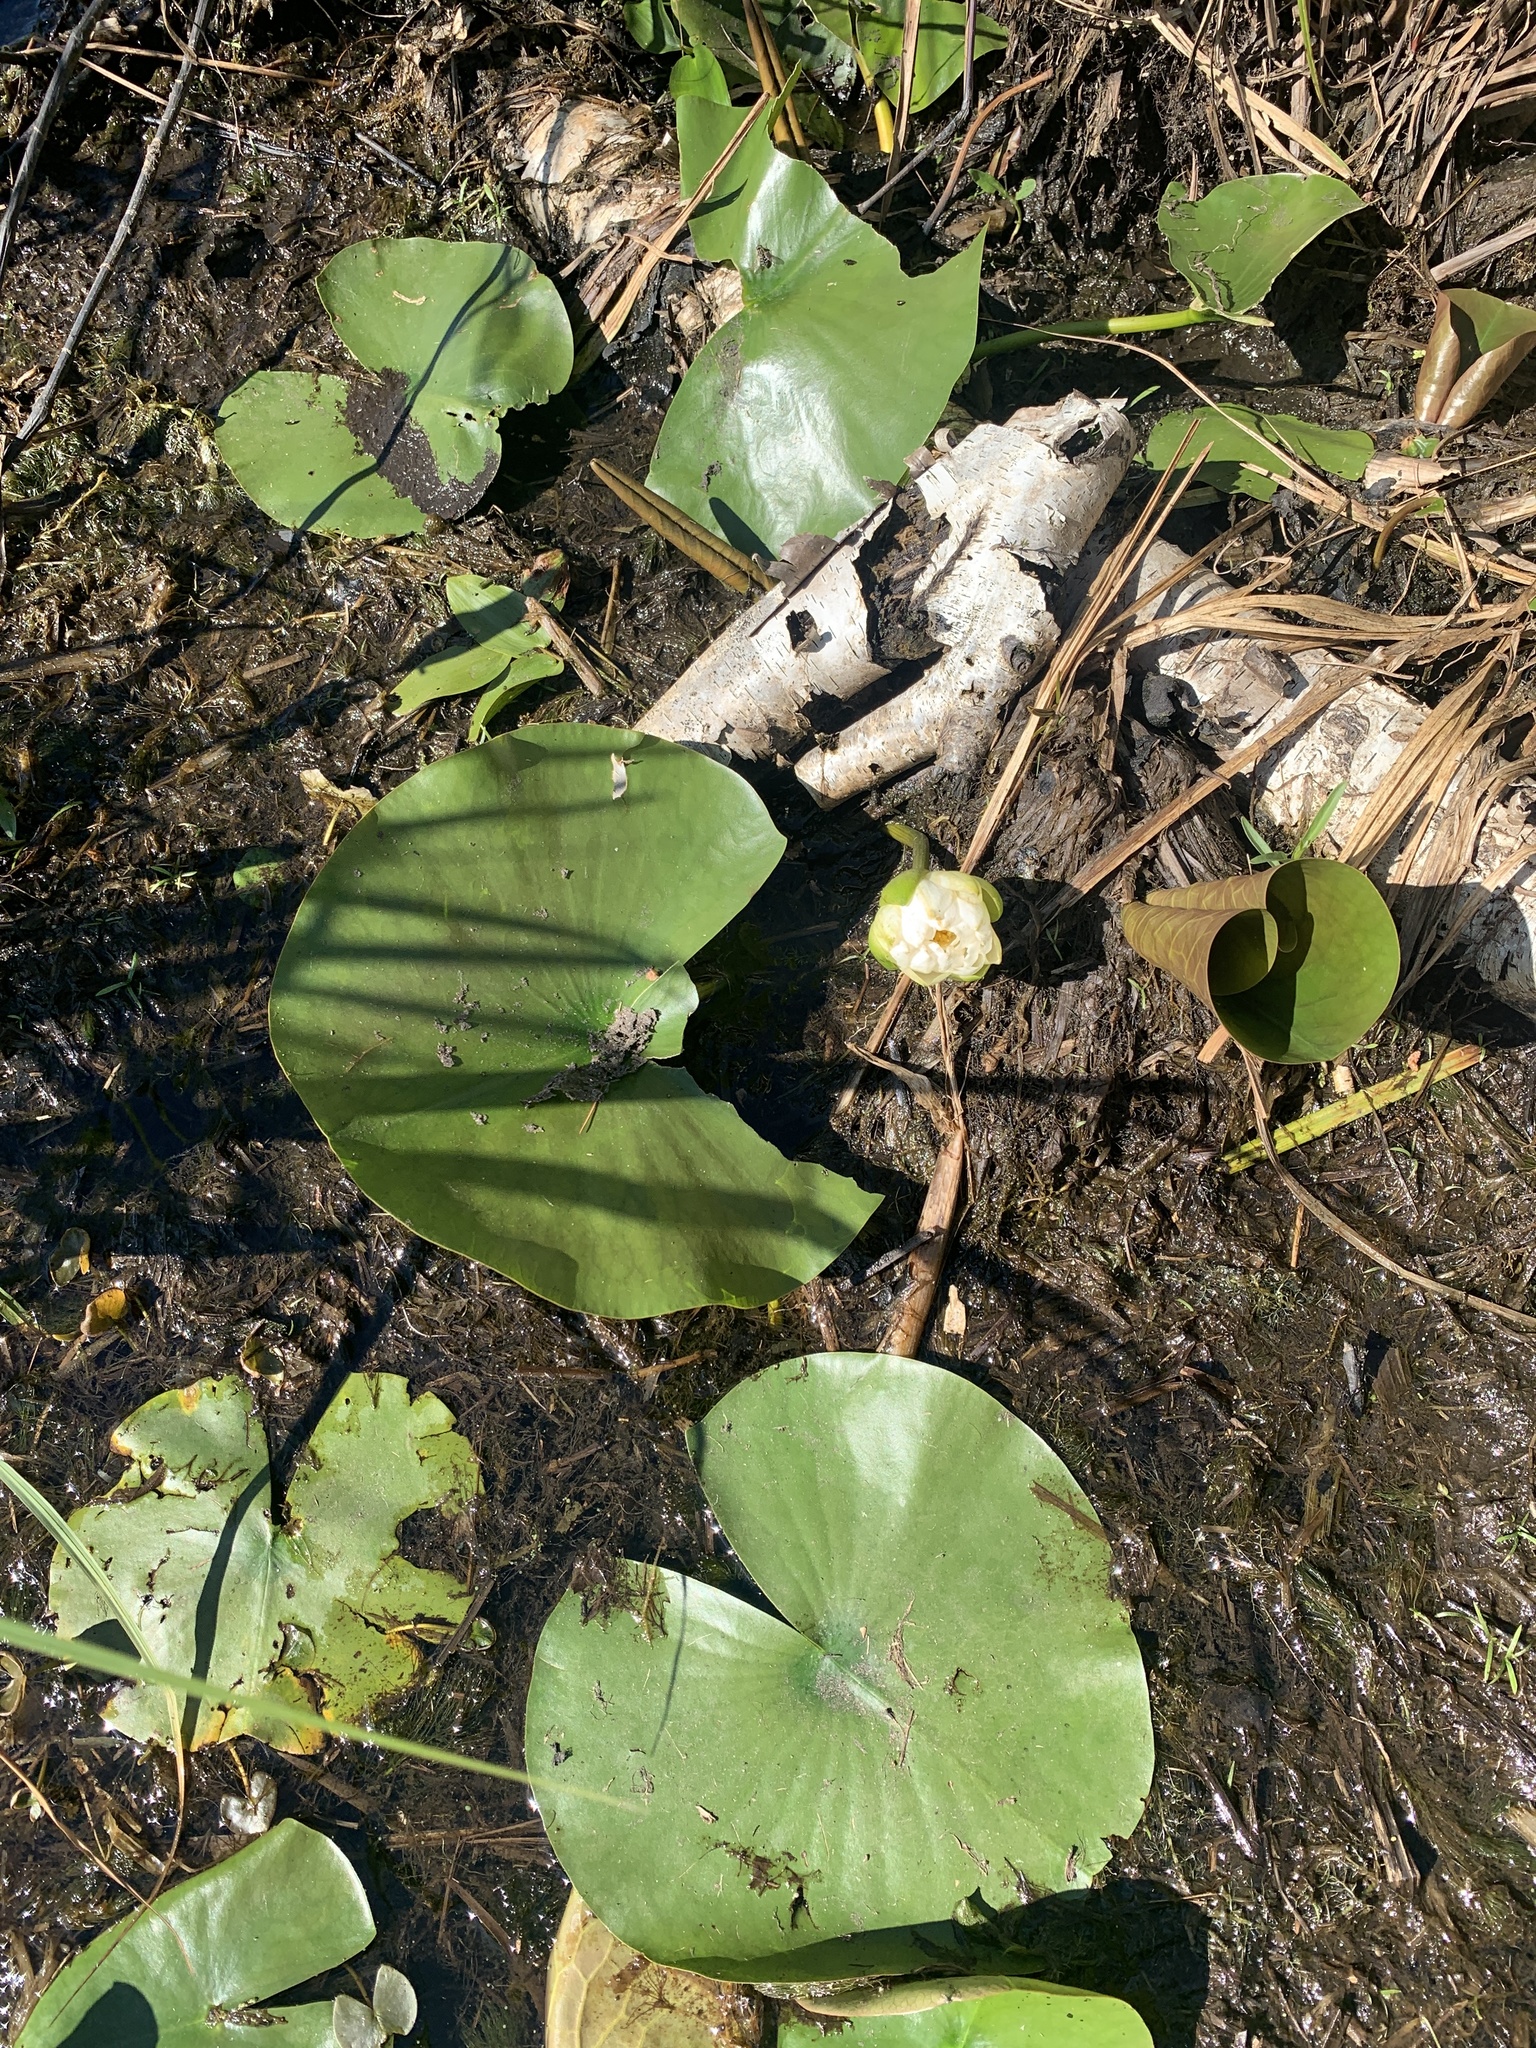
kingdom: Plantae
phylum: Tracheophyta
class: Magnoliopsida
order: Nymphaeales
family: Nymphaeaceae
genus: Nymphaea
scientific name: Nymphaea odorata
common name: Fragrant water-lily
